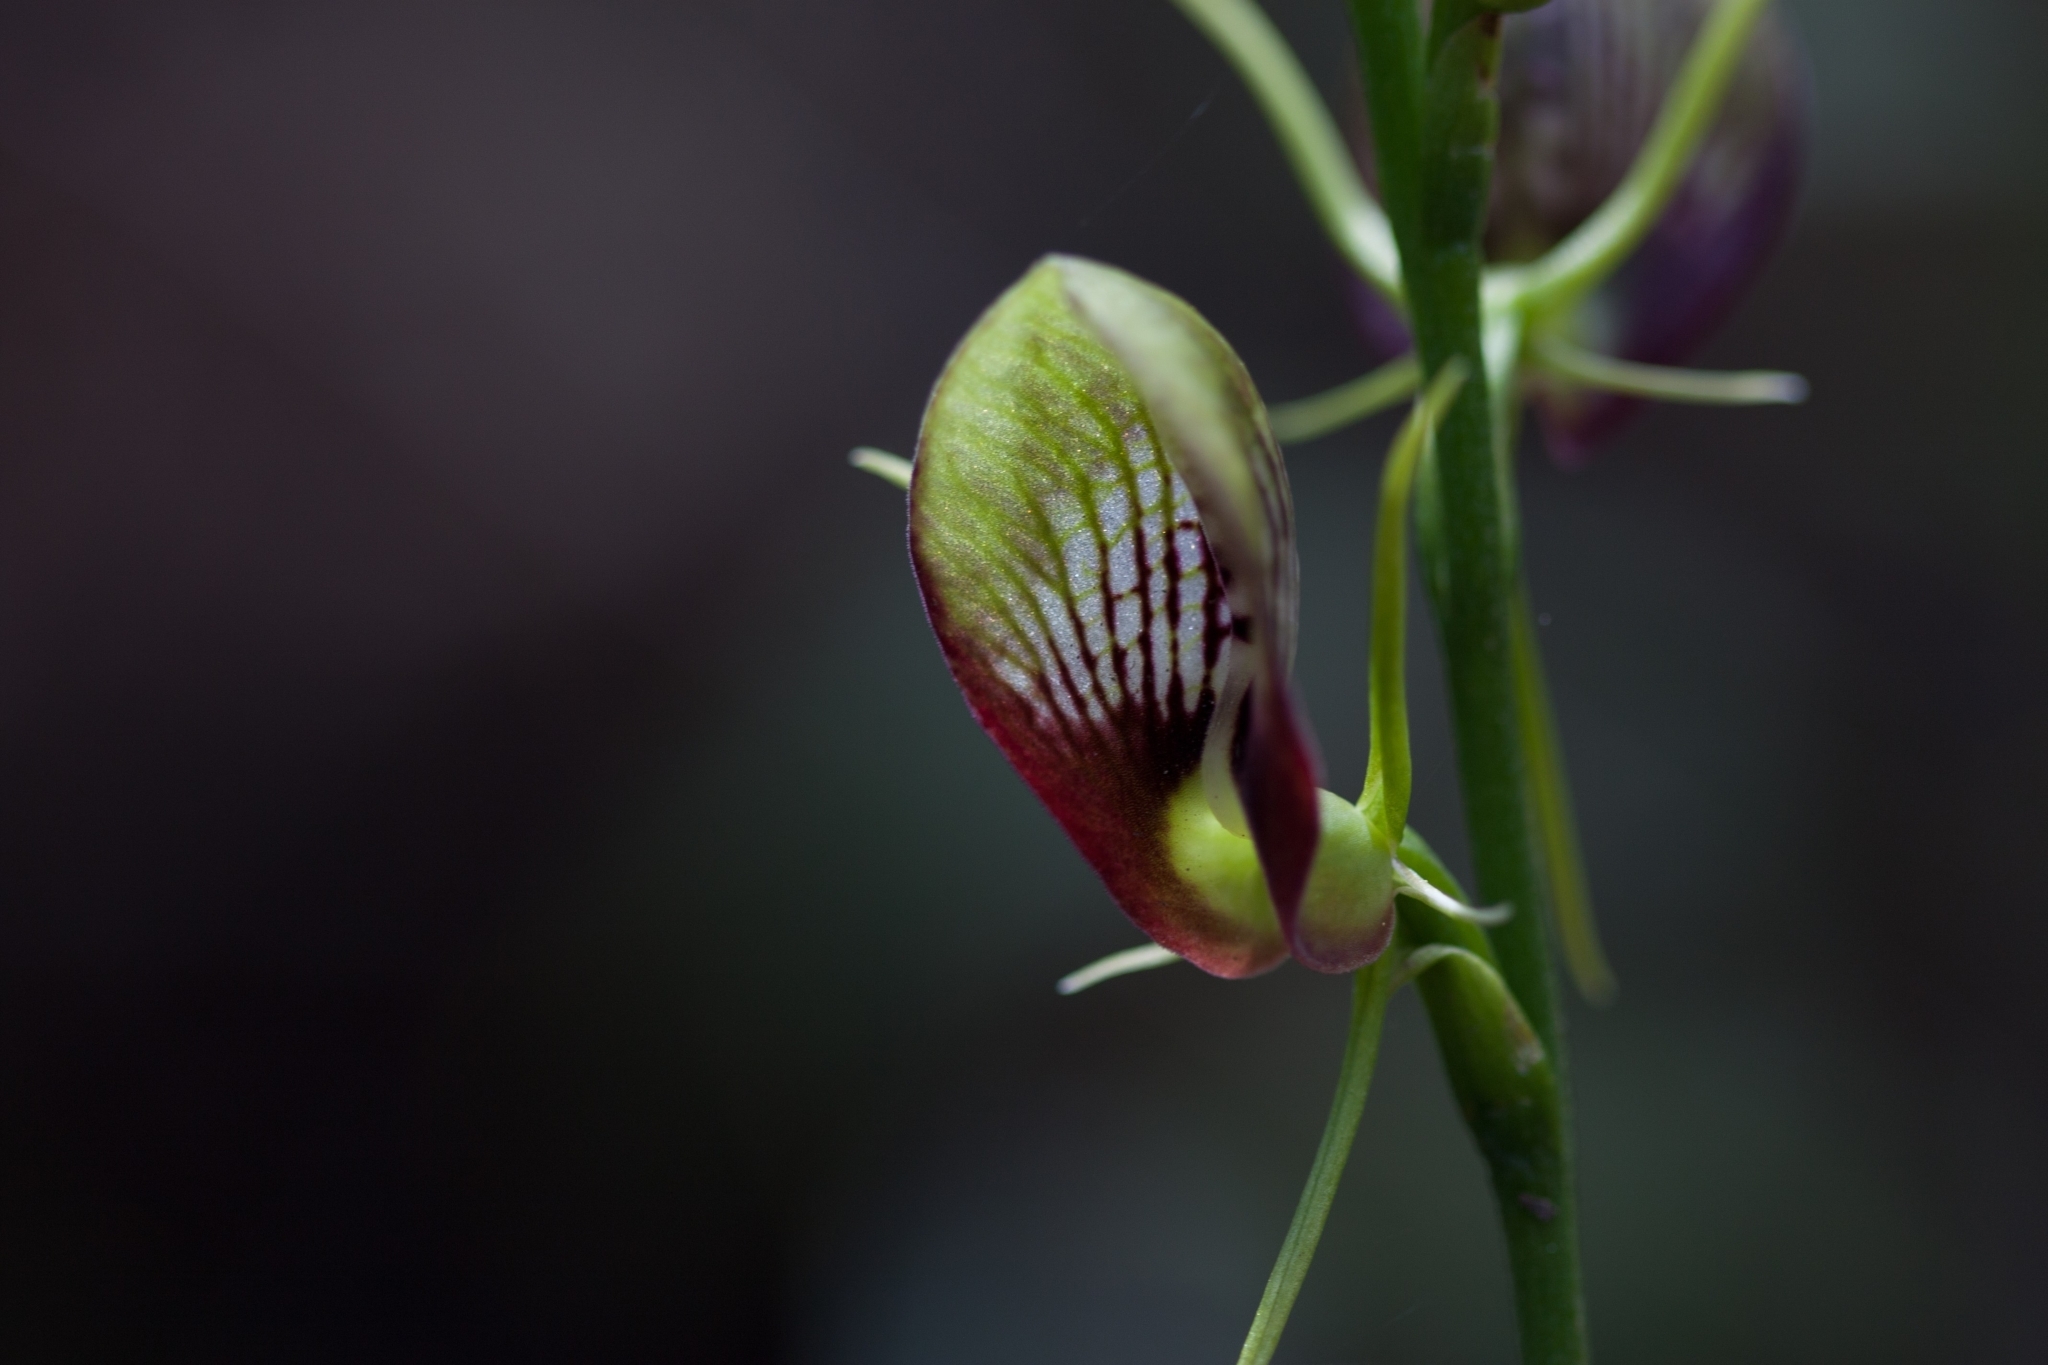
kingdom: Plantae
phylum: Tracheophyta
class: Liliopsida
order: Asparagales
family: Orchidaceae
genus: Cryptostylis
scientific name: Cryptostylis erecta
